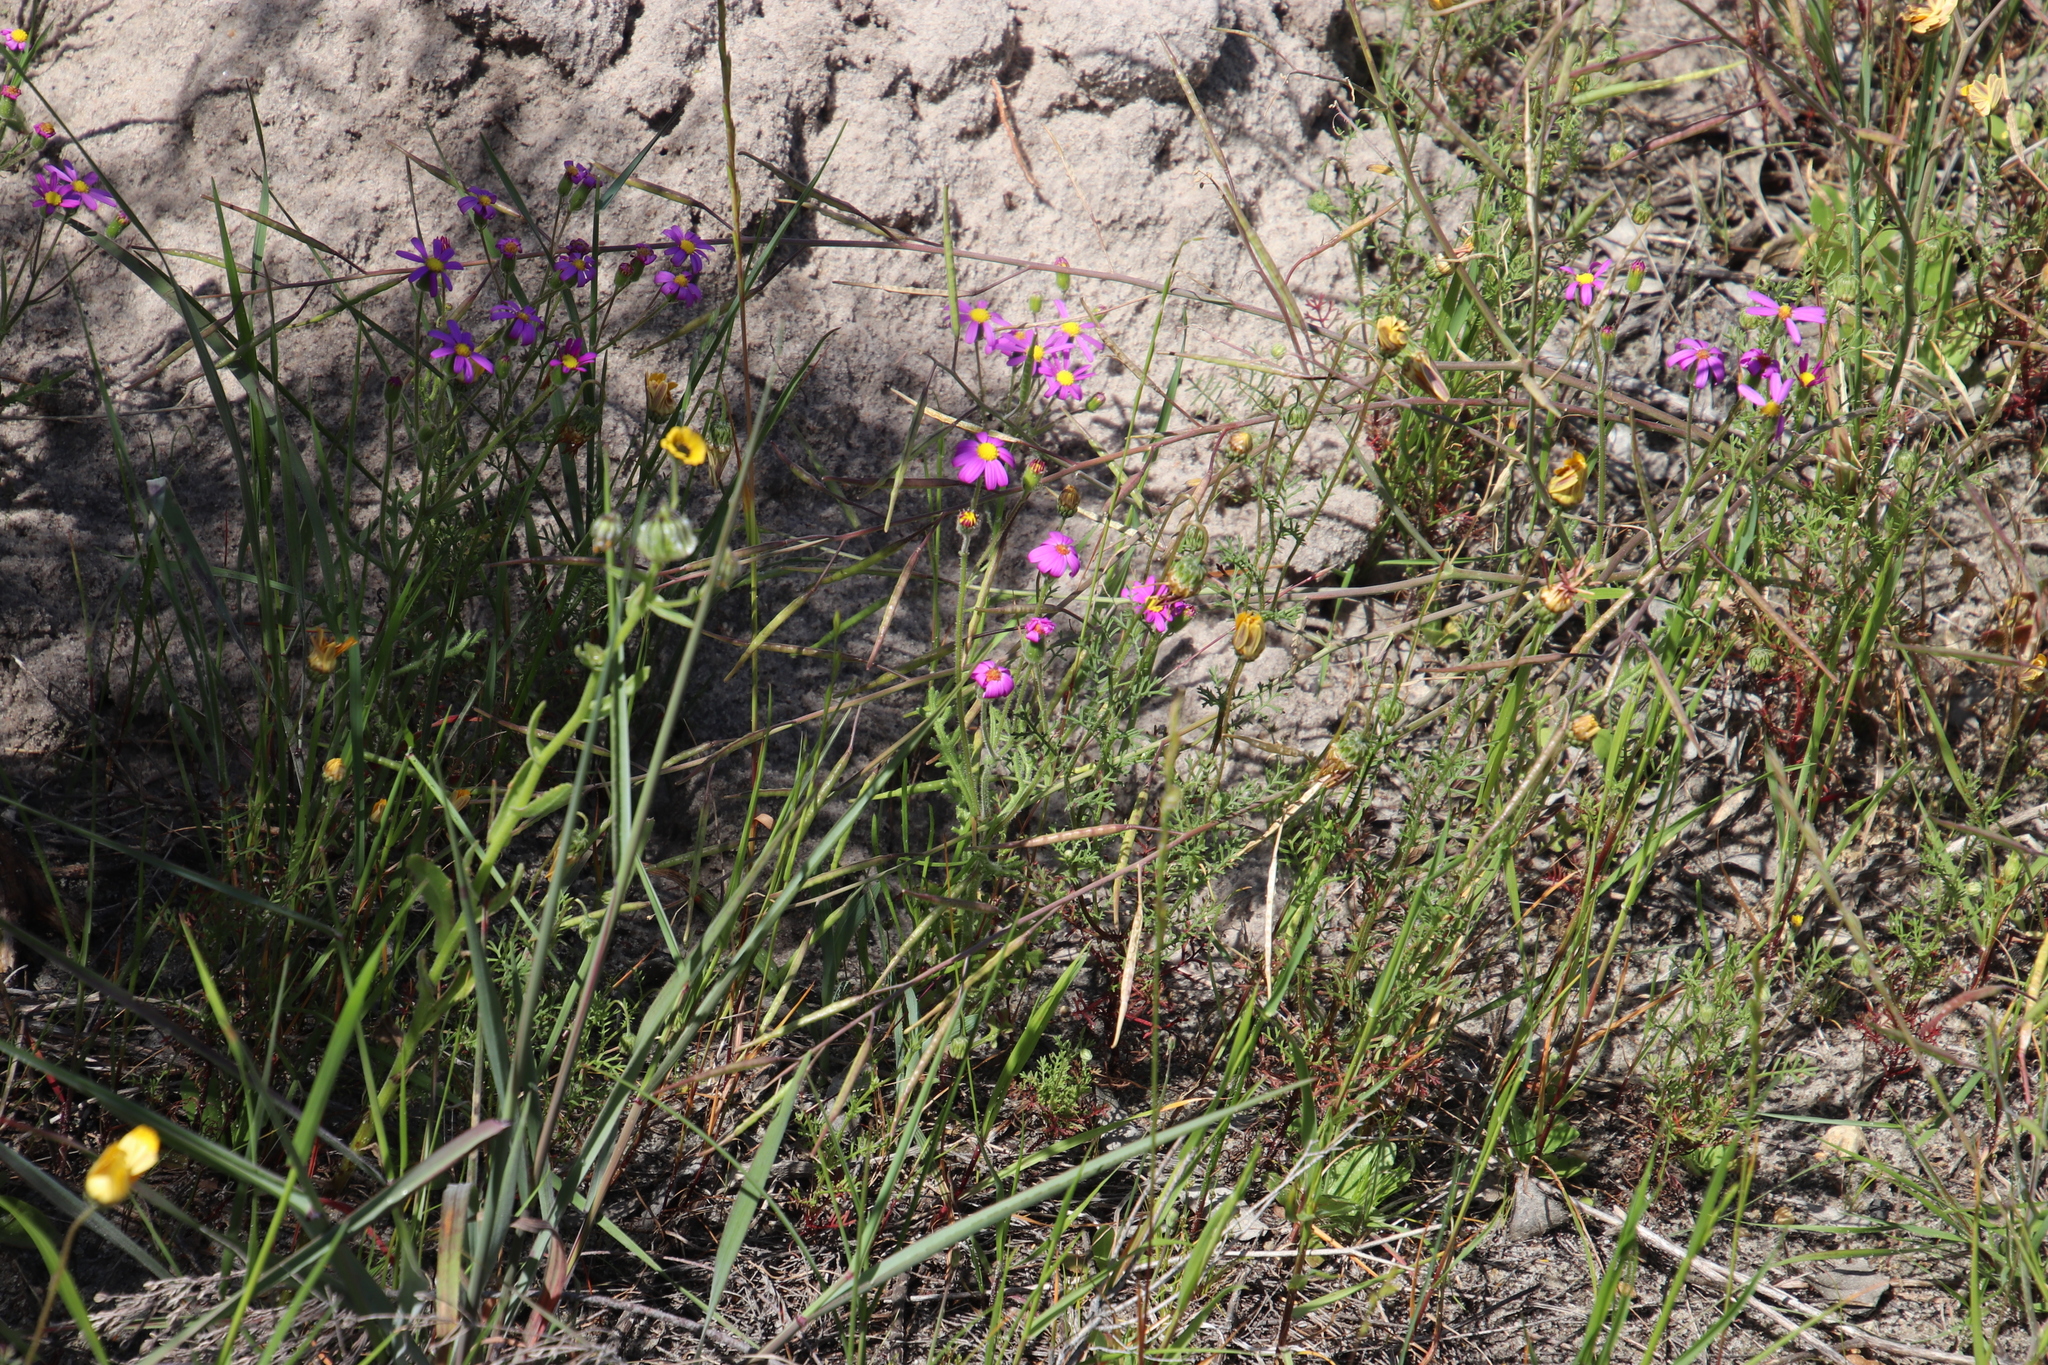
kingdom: Plantae
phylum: Tracheophyta
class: Magnoliopsida
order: Asterales
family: Asteraceae
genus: Senecio
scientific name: Senecio arenarius
